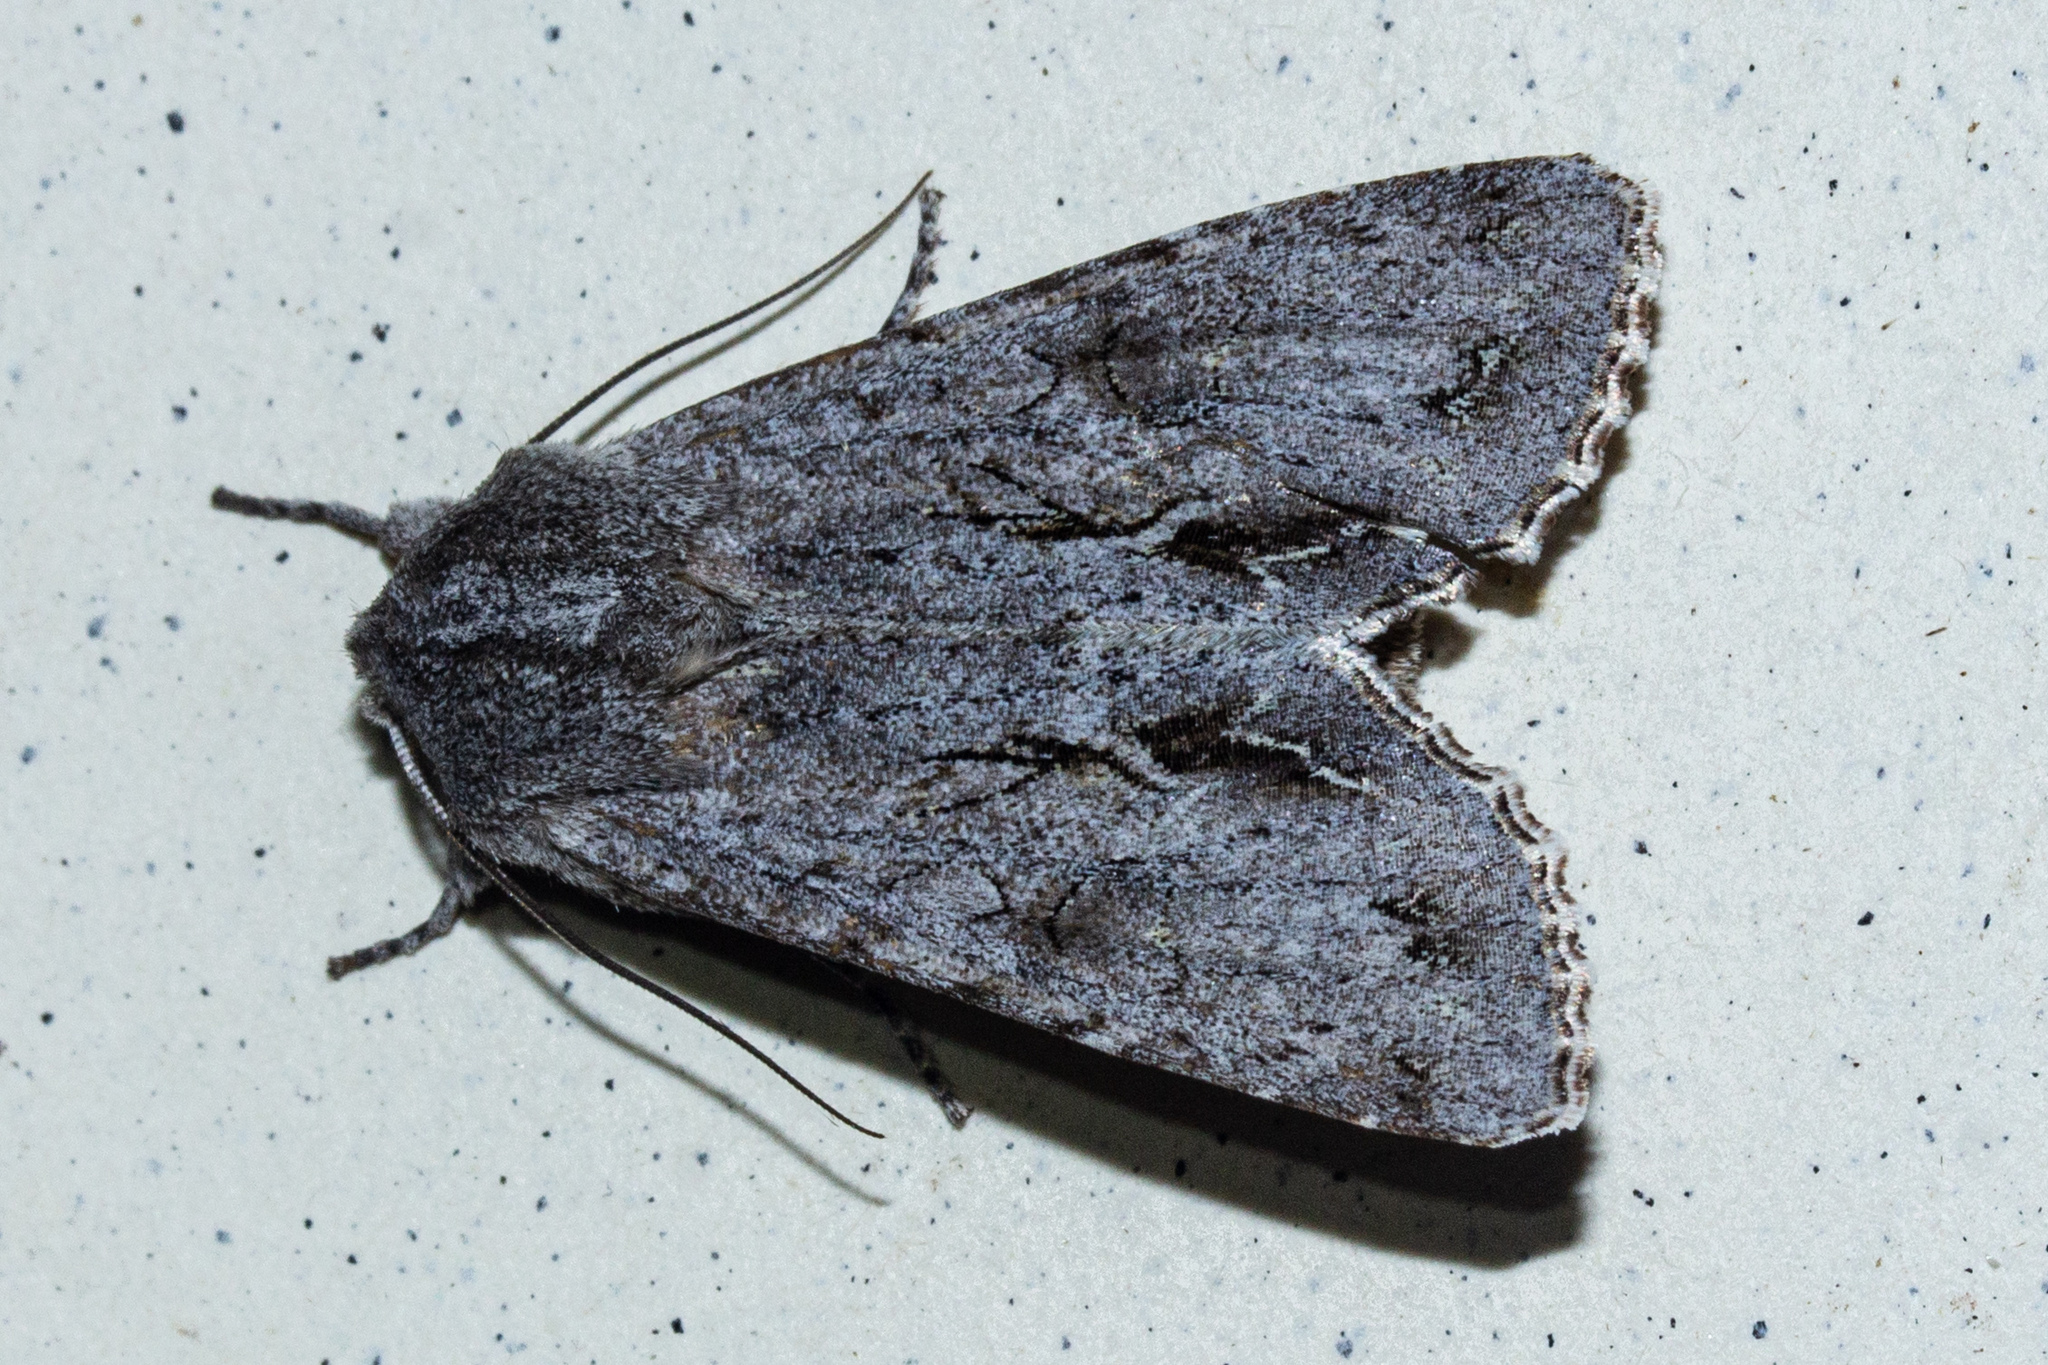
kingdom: Animalia
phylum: Arthropoda
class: Insecta
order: Lepidoptera
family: Noctuidae
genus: Ichneutica
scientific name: Ichneutica
